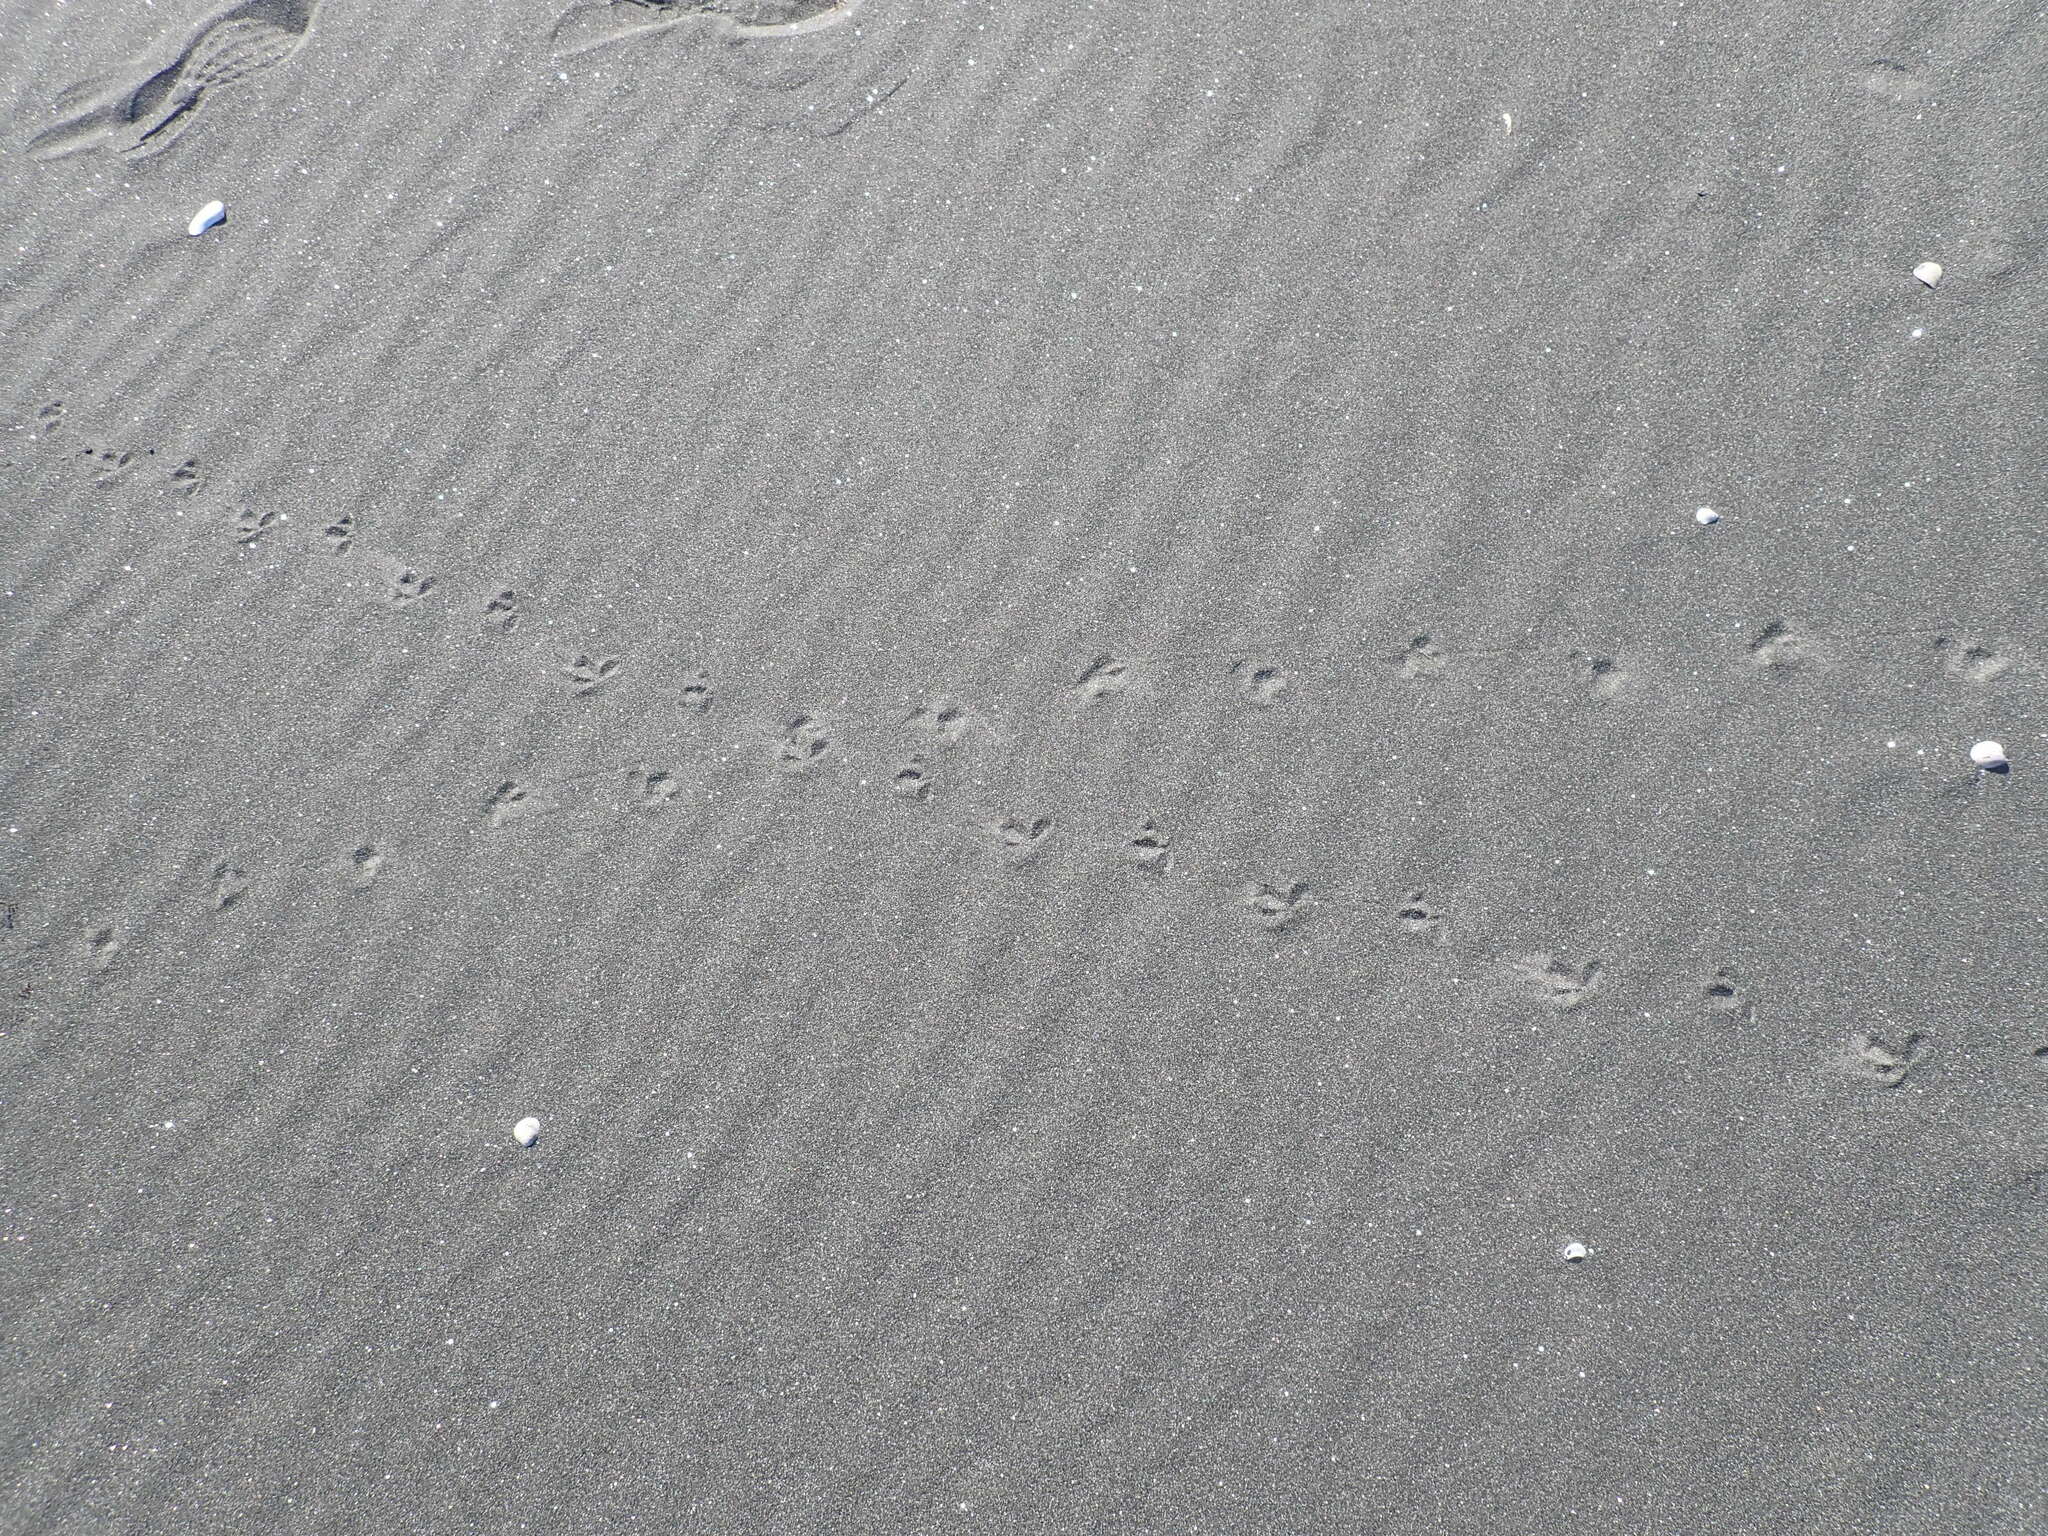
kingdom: Animalia
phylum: Chordata
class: Aves
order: Charadriiformes
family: Charadriidae
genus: Anarhynchus
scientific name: Anarhynchus
